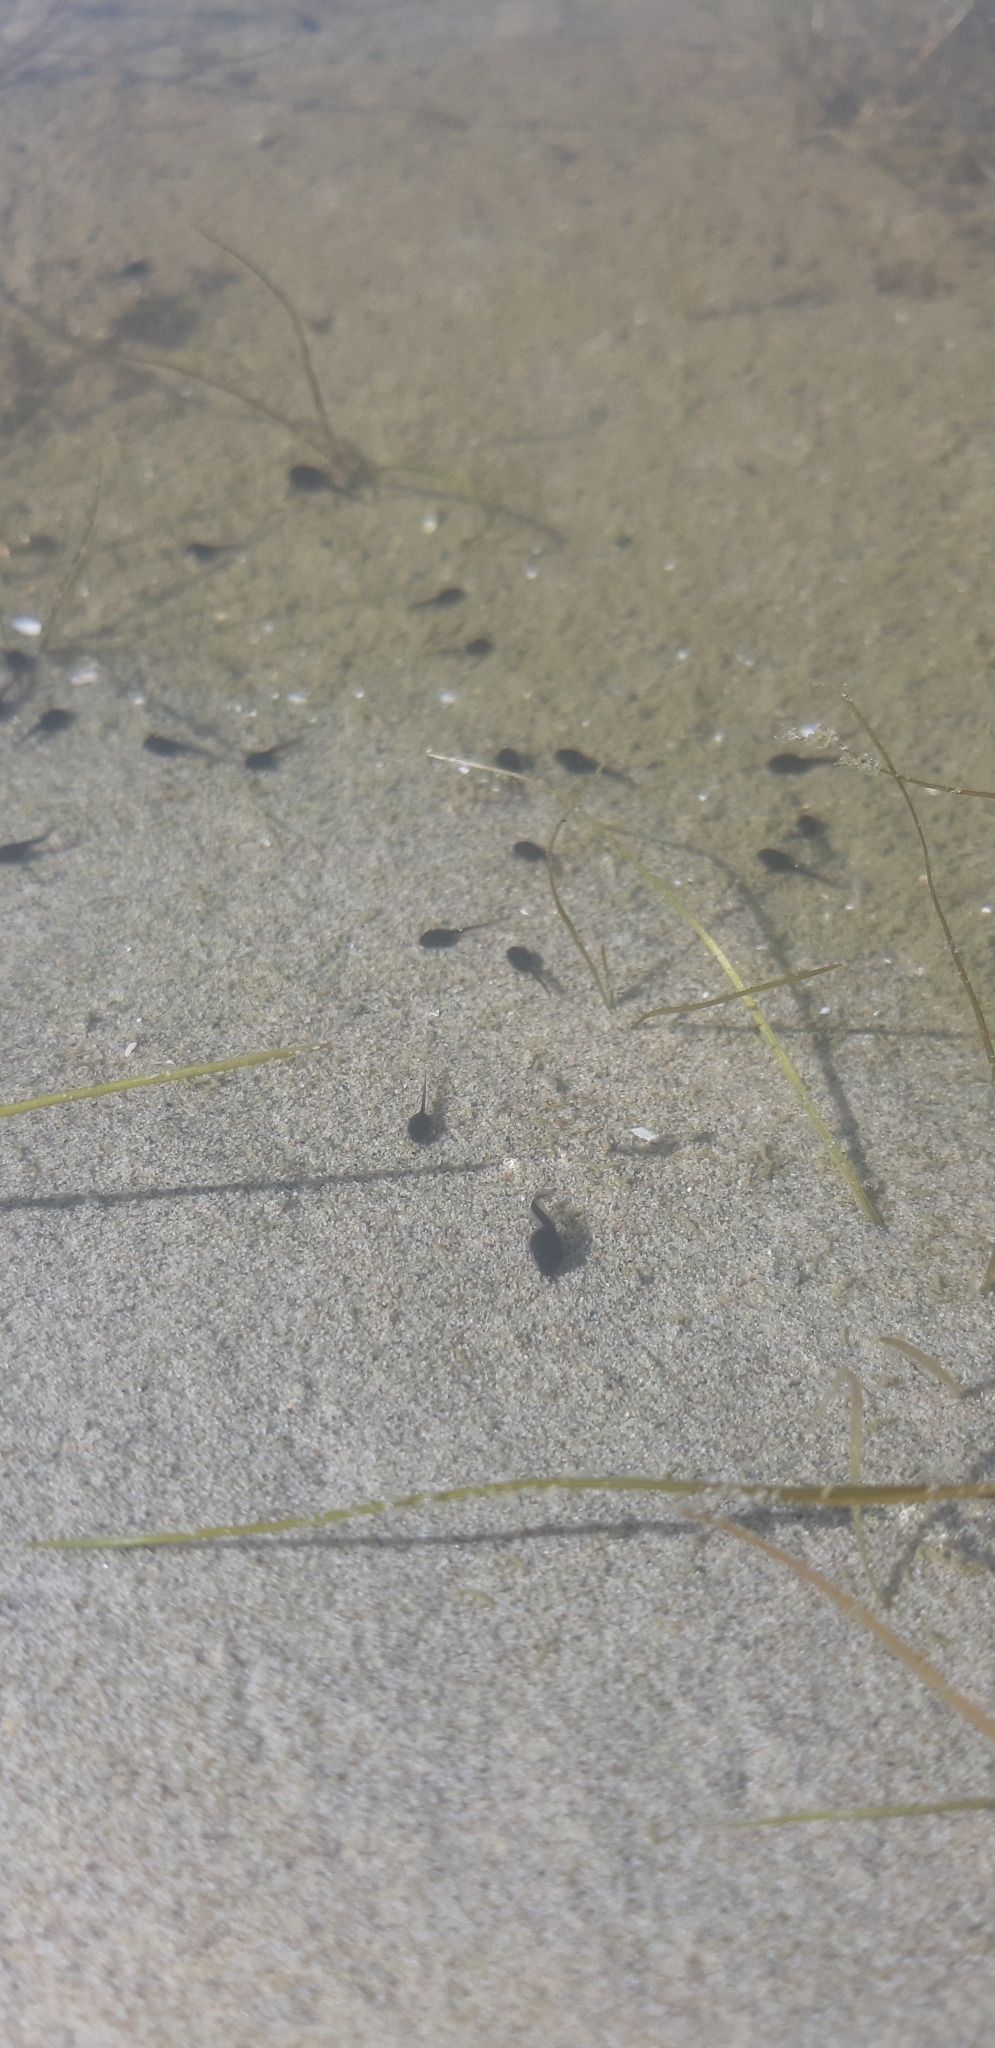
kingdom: Animalia
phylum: Chordata
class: Amphibia
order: Anura
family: Bufonidae
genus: Bufotes
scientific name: Bufotes viridis
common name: European green toad
